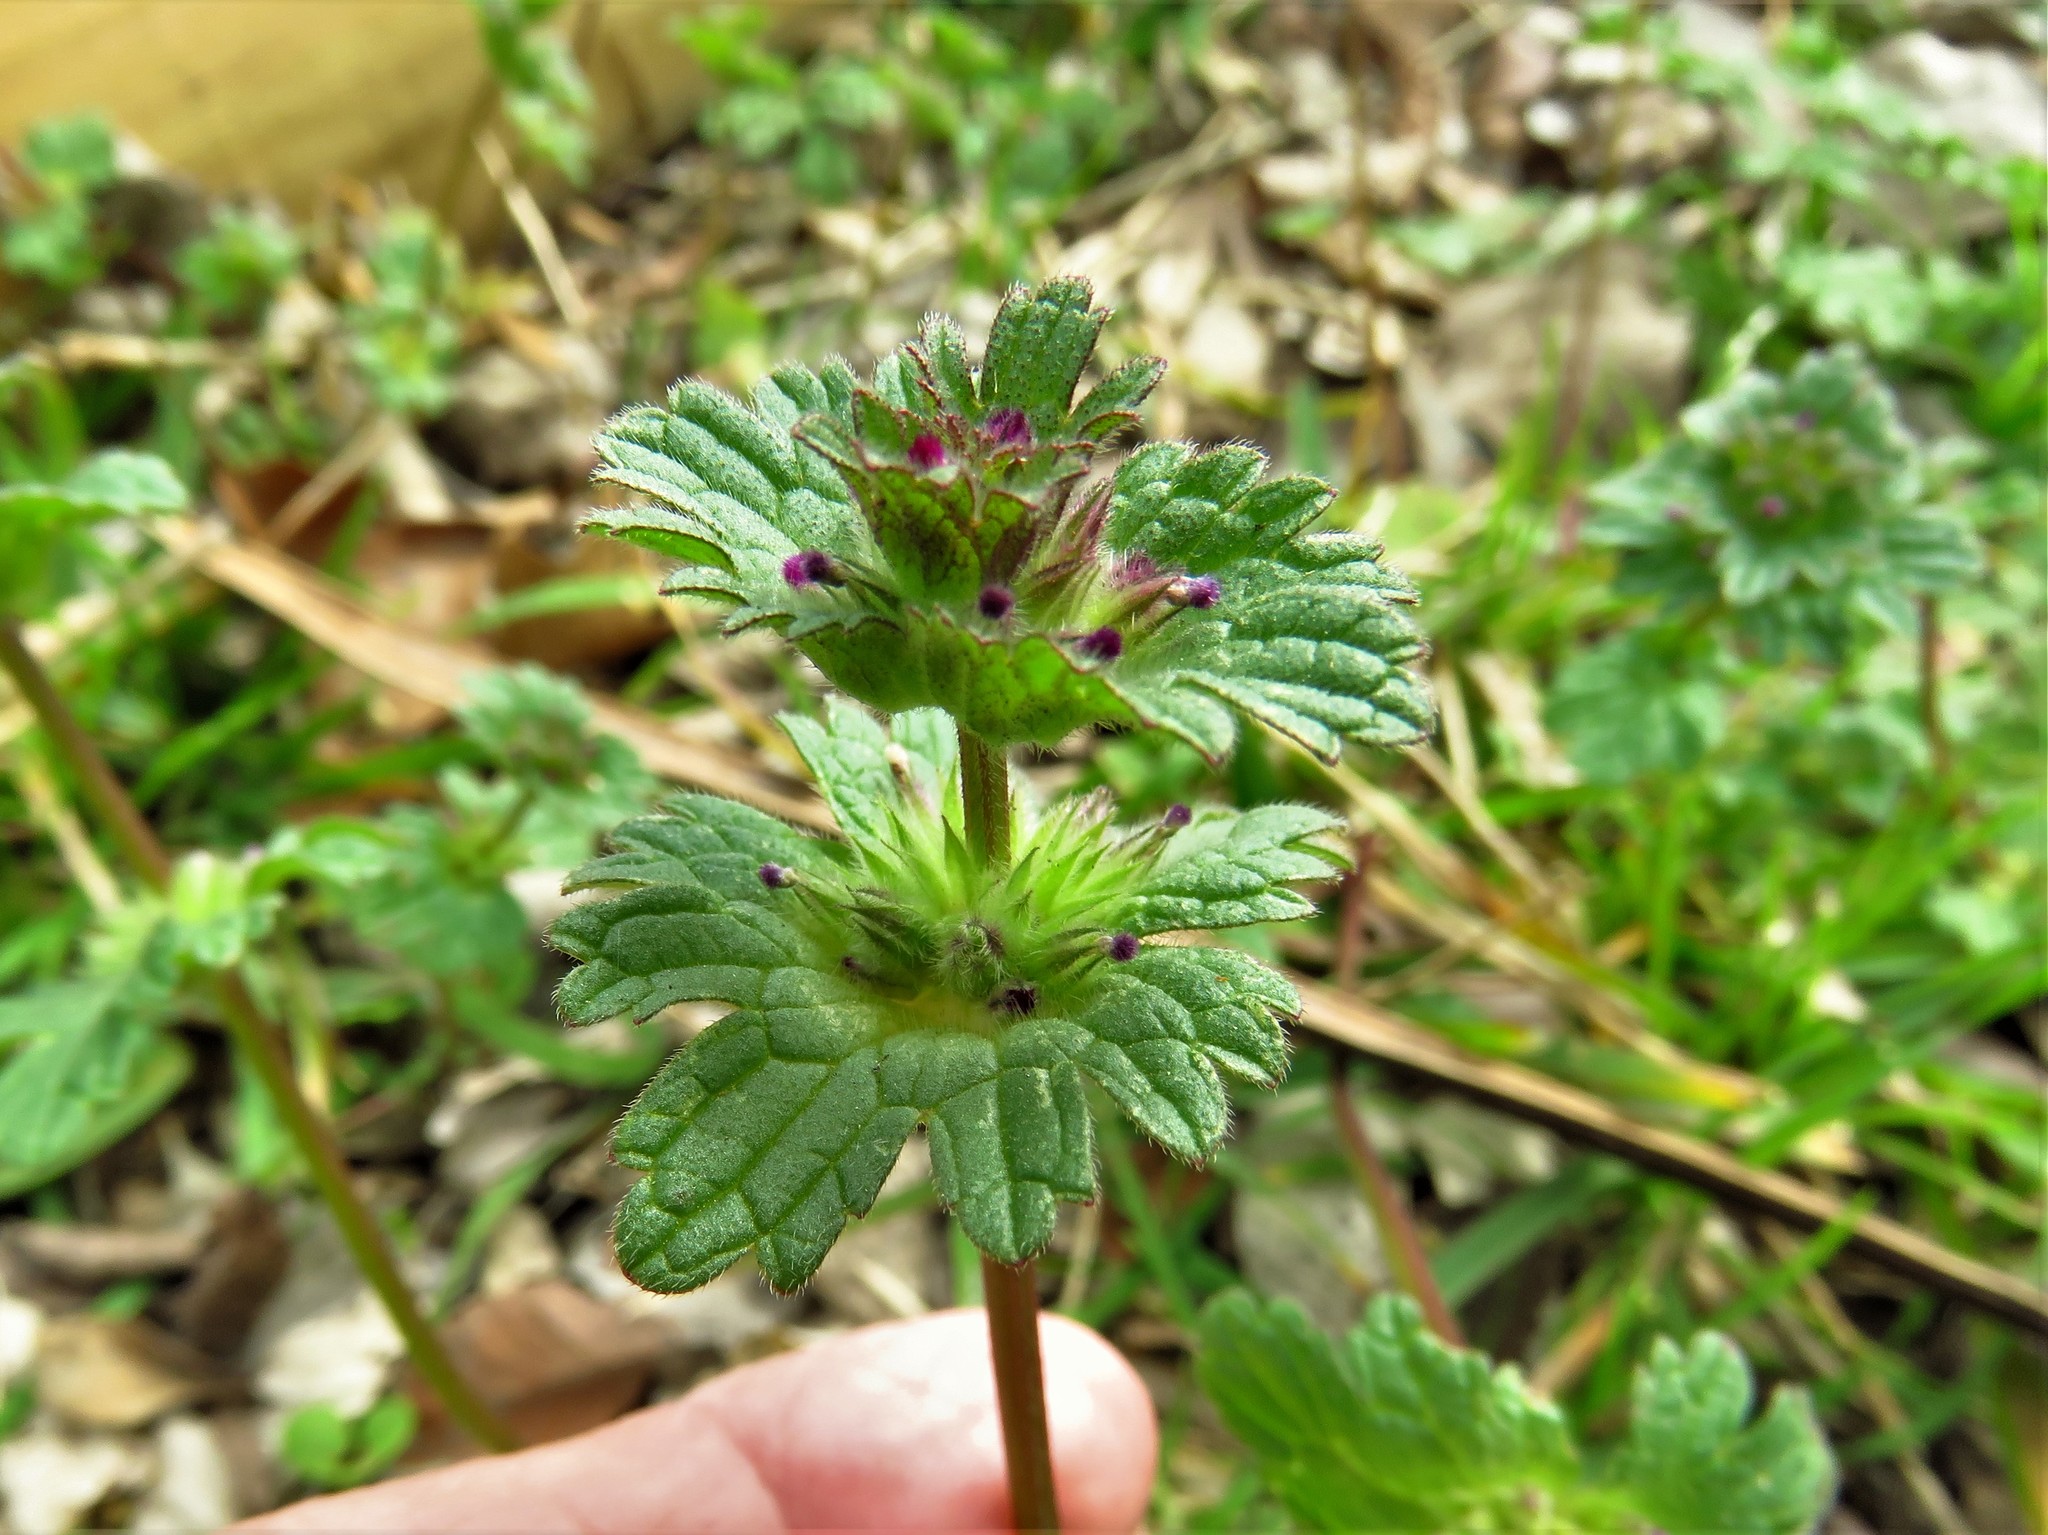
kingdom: Plantae
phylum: Tracheophyta
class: Magnoliopsida
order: Lamiales
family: Lamiaceae
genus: Lamium
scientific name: Lamium amplexicaule
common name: Henbit dead-nettle
